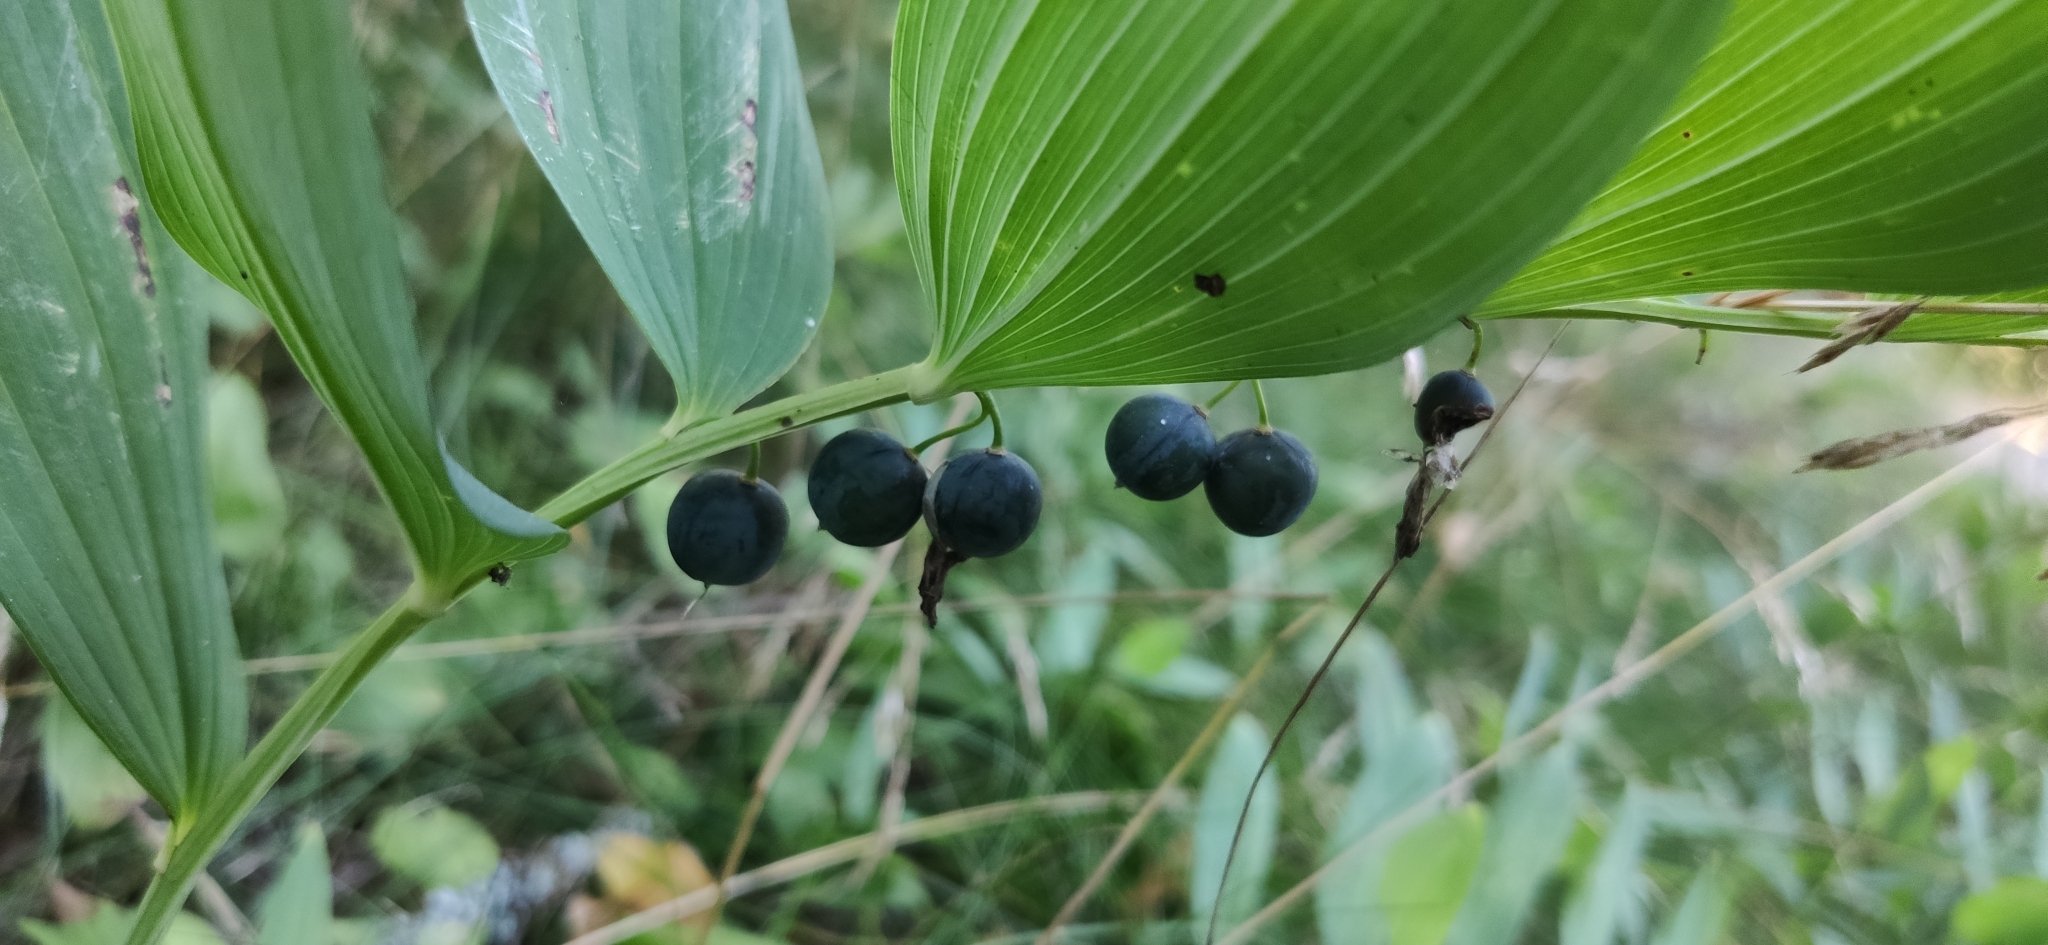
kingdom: Plantae
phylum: Tracheophyta
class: Liliopsida
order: Asparagales
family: Asparagaceae
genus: Polygonatum
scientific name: Polygonatum odoratum
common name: Angular solomon's-seal
